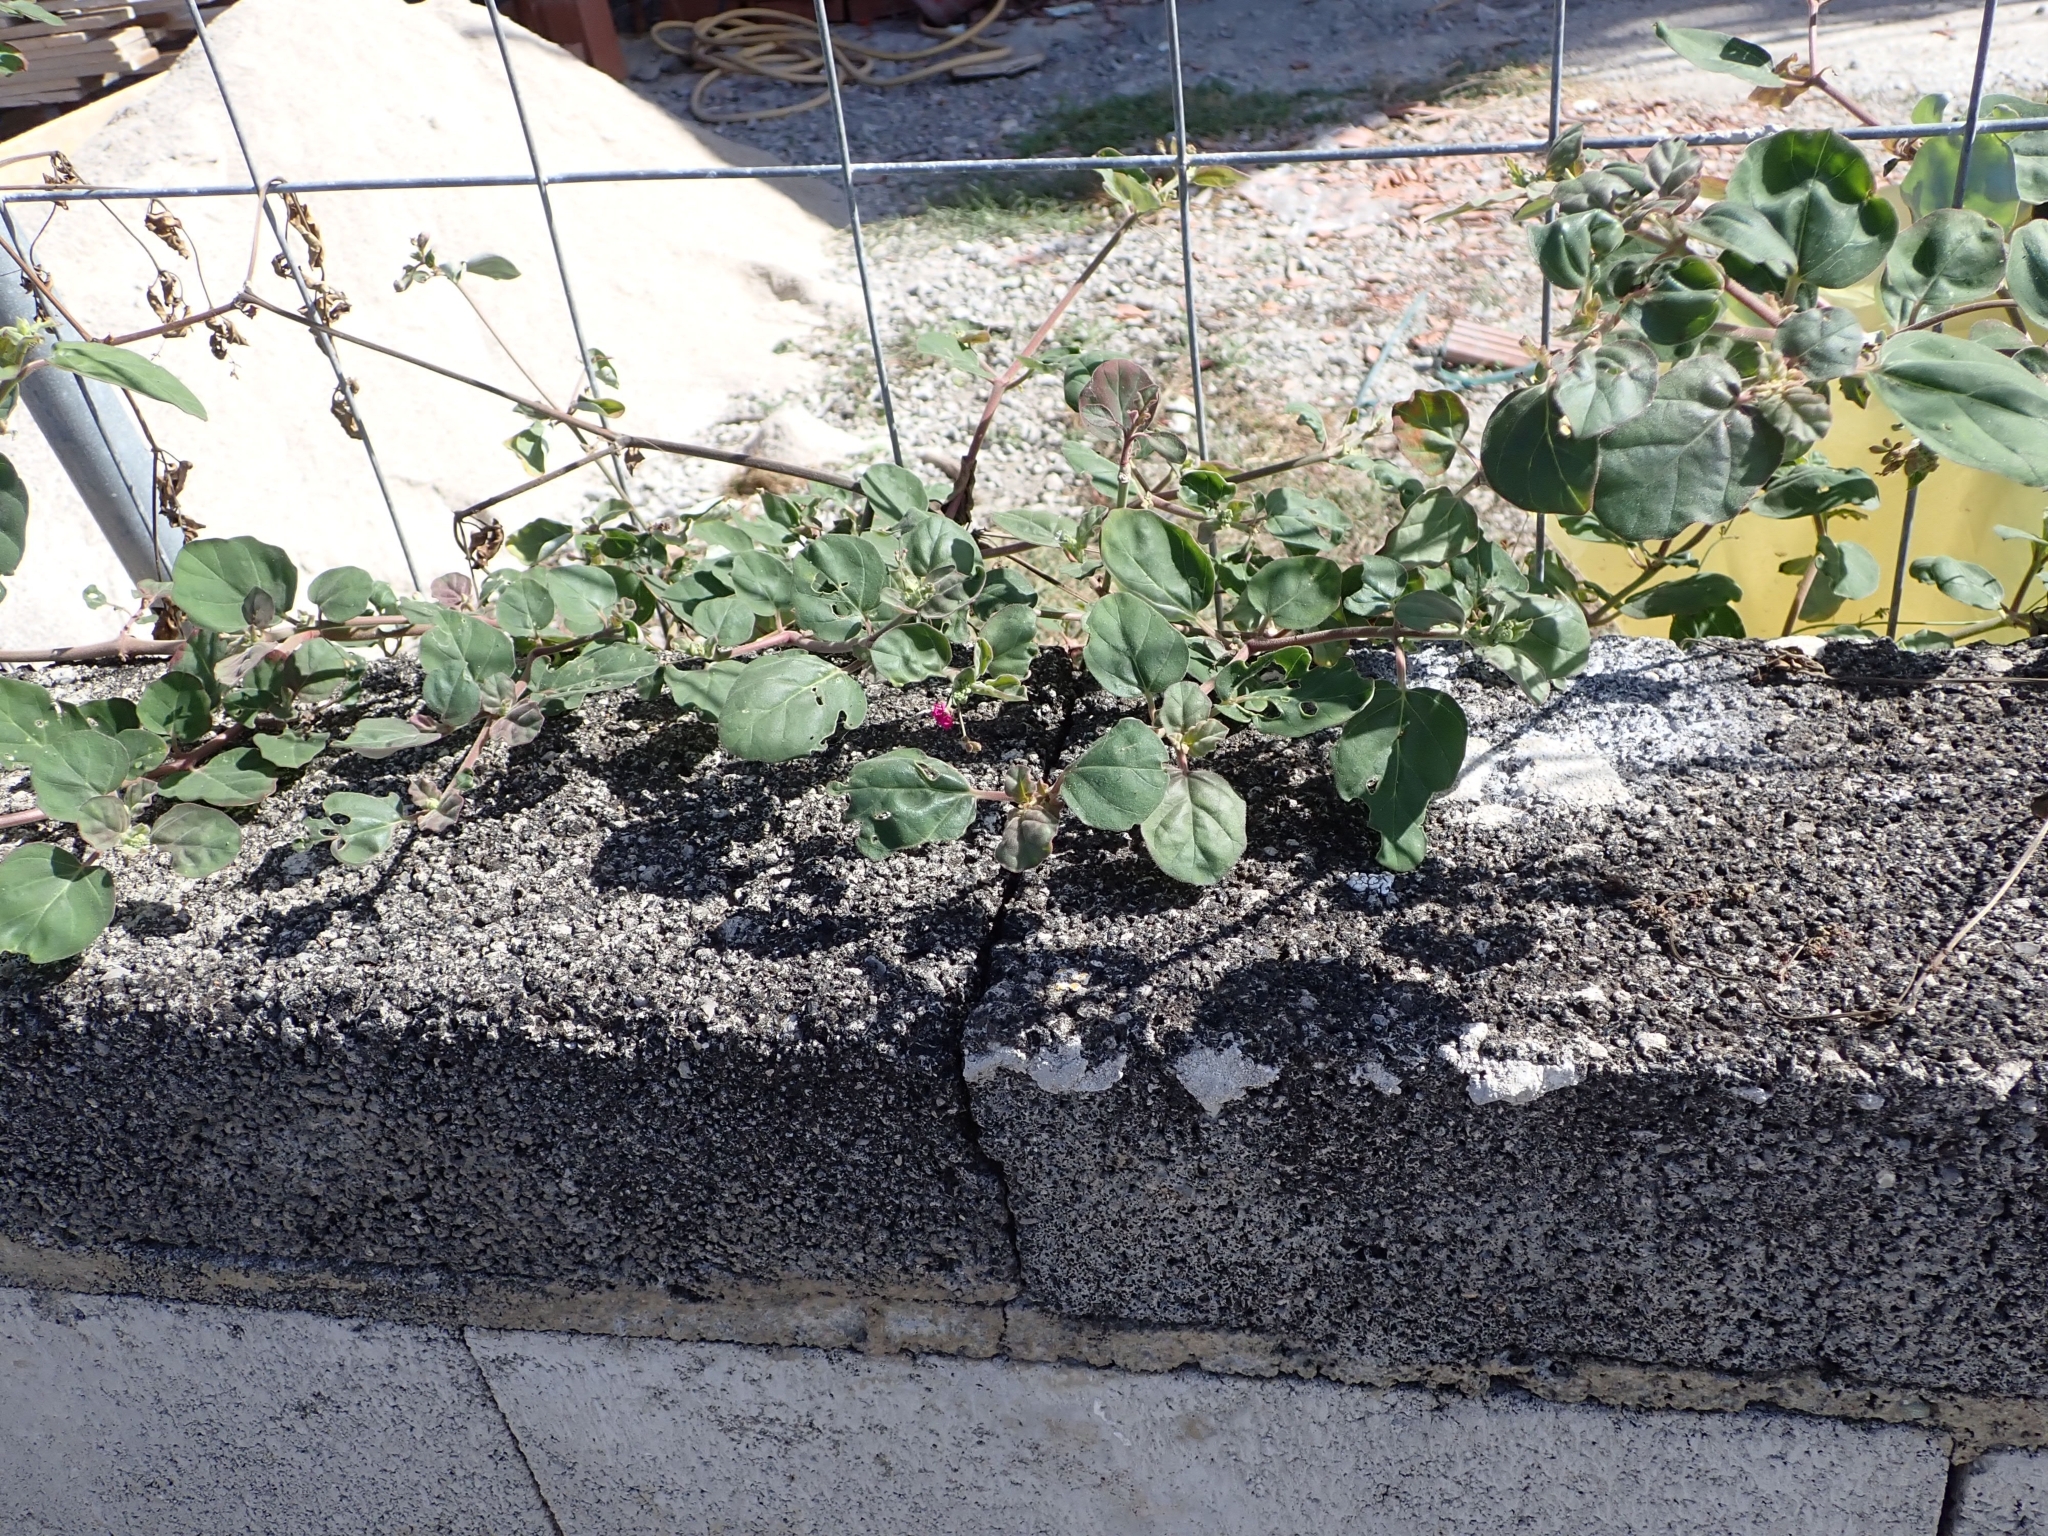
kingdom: Plantae
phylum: Tracheophyta
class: Magnoliopsida
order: Caryophyllales
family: Nyctaginaceae
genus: Boerhavia
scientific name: Boerhavia coccinea
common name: Scarlet spiderling
